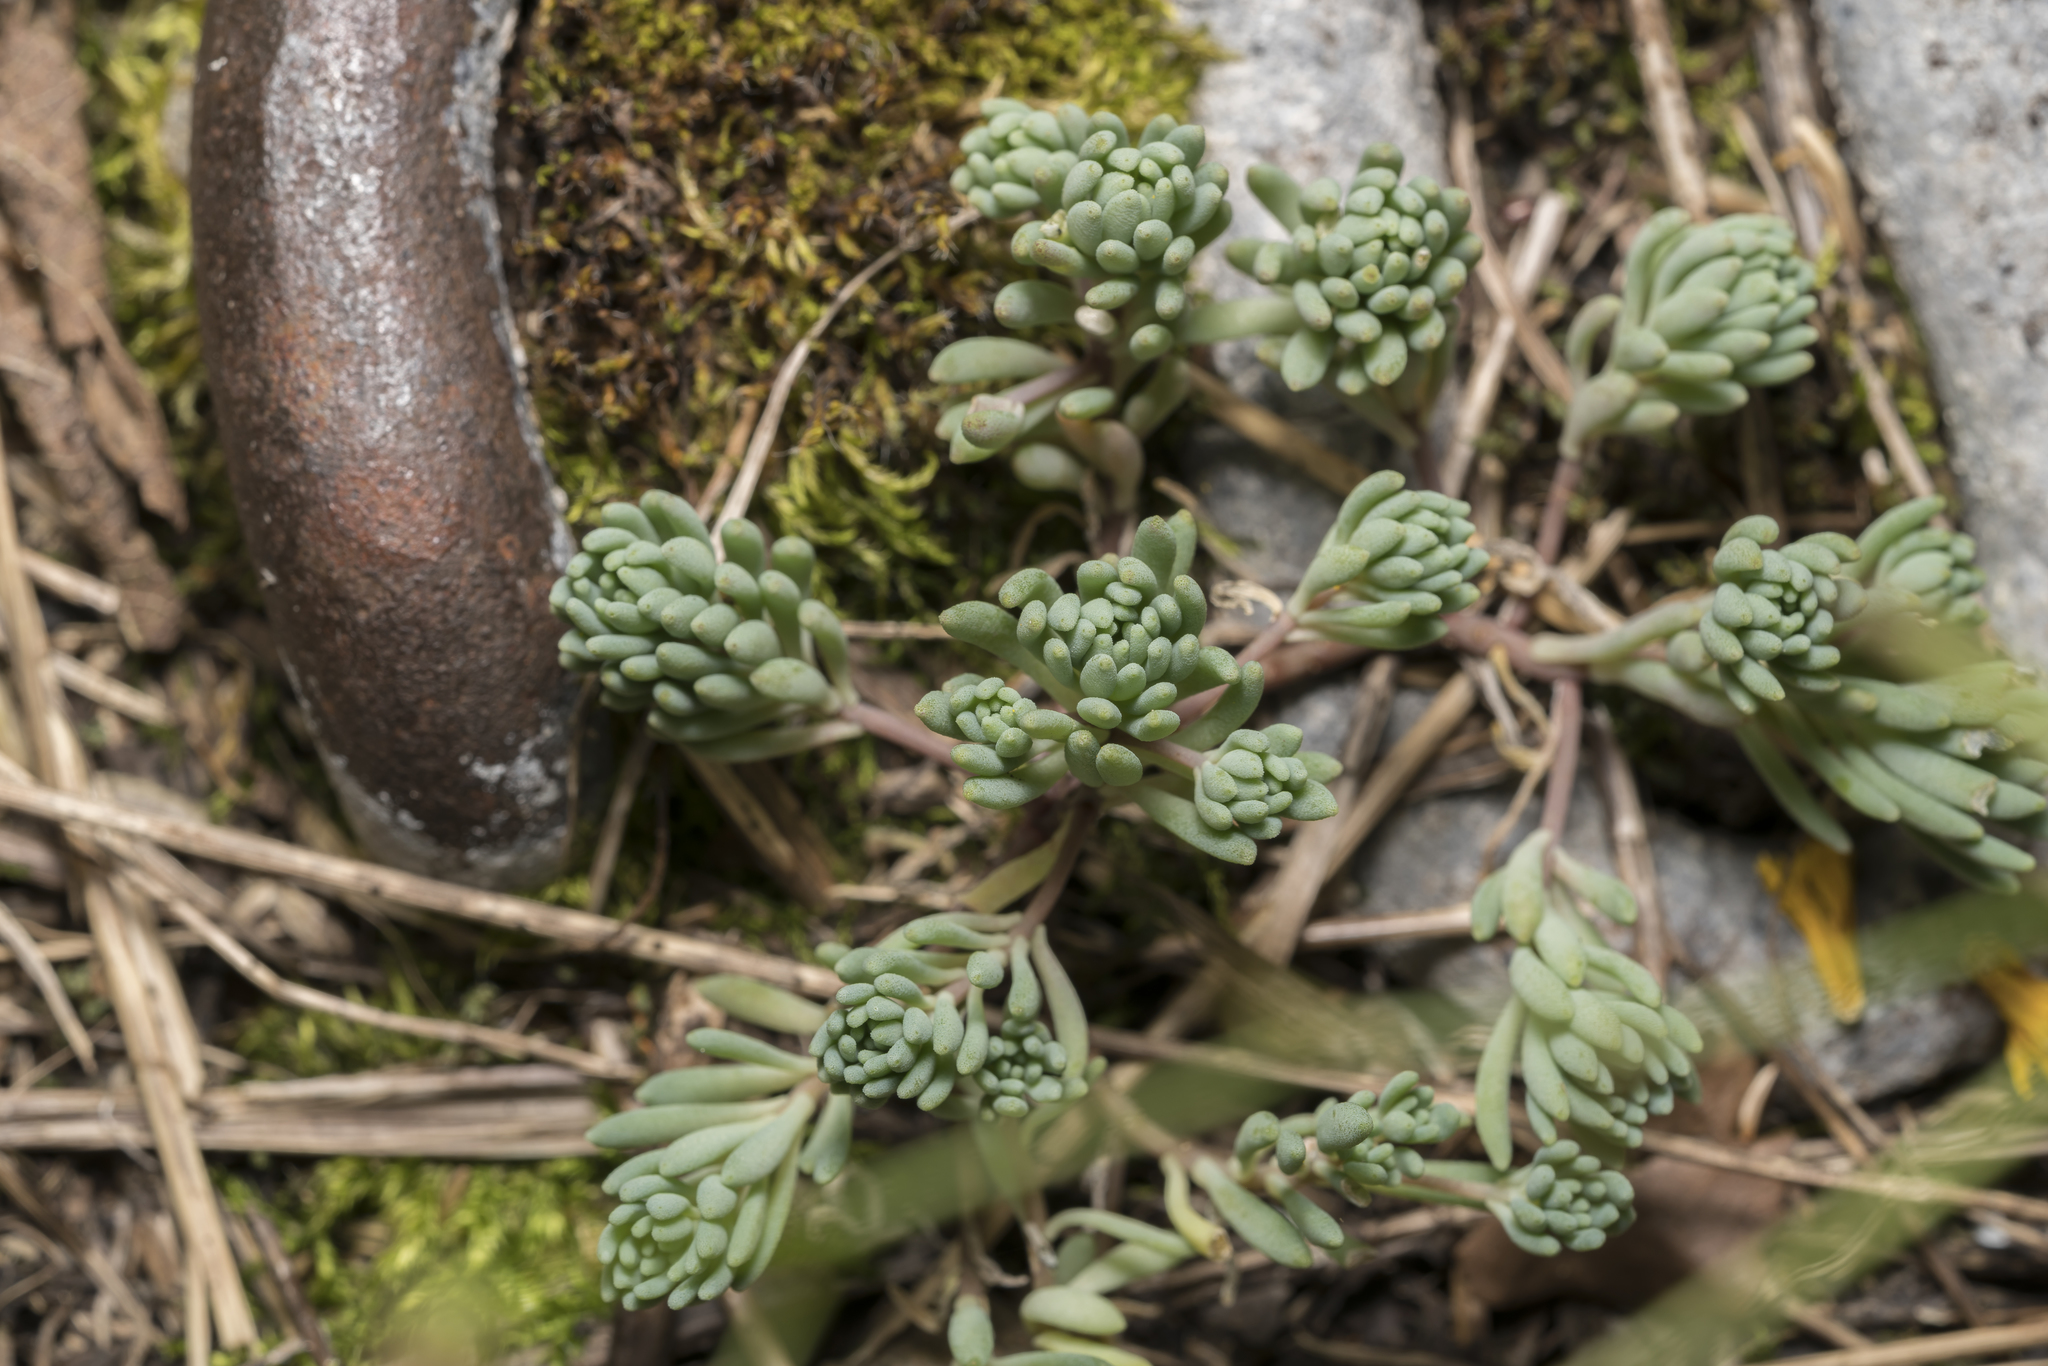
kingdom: Plantae
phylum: Tracheophyta
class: Magnoliopsida
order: Saxifragales
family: Crassulaceae
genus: Sedum
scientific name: Sedum hispanicum
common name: Spanish stonecrop
